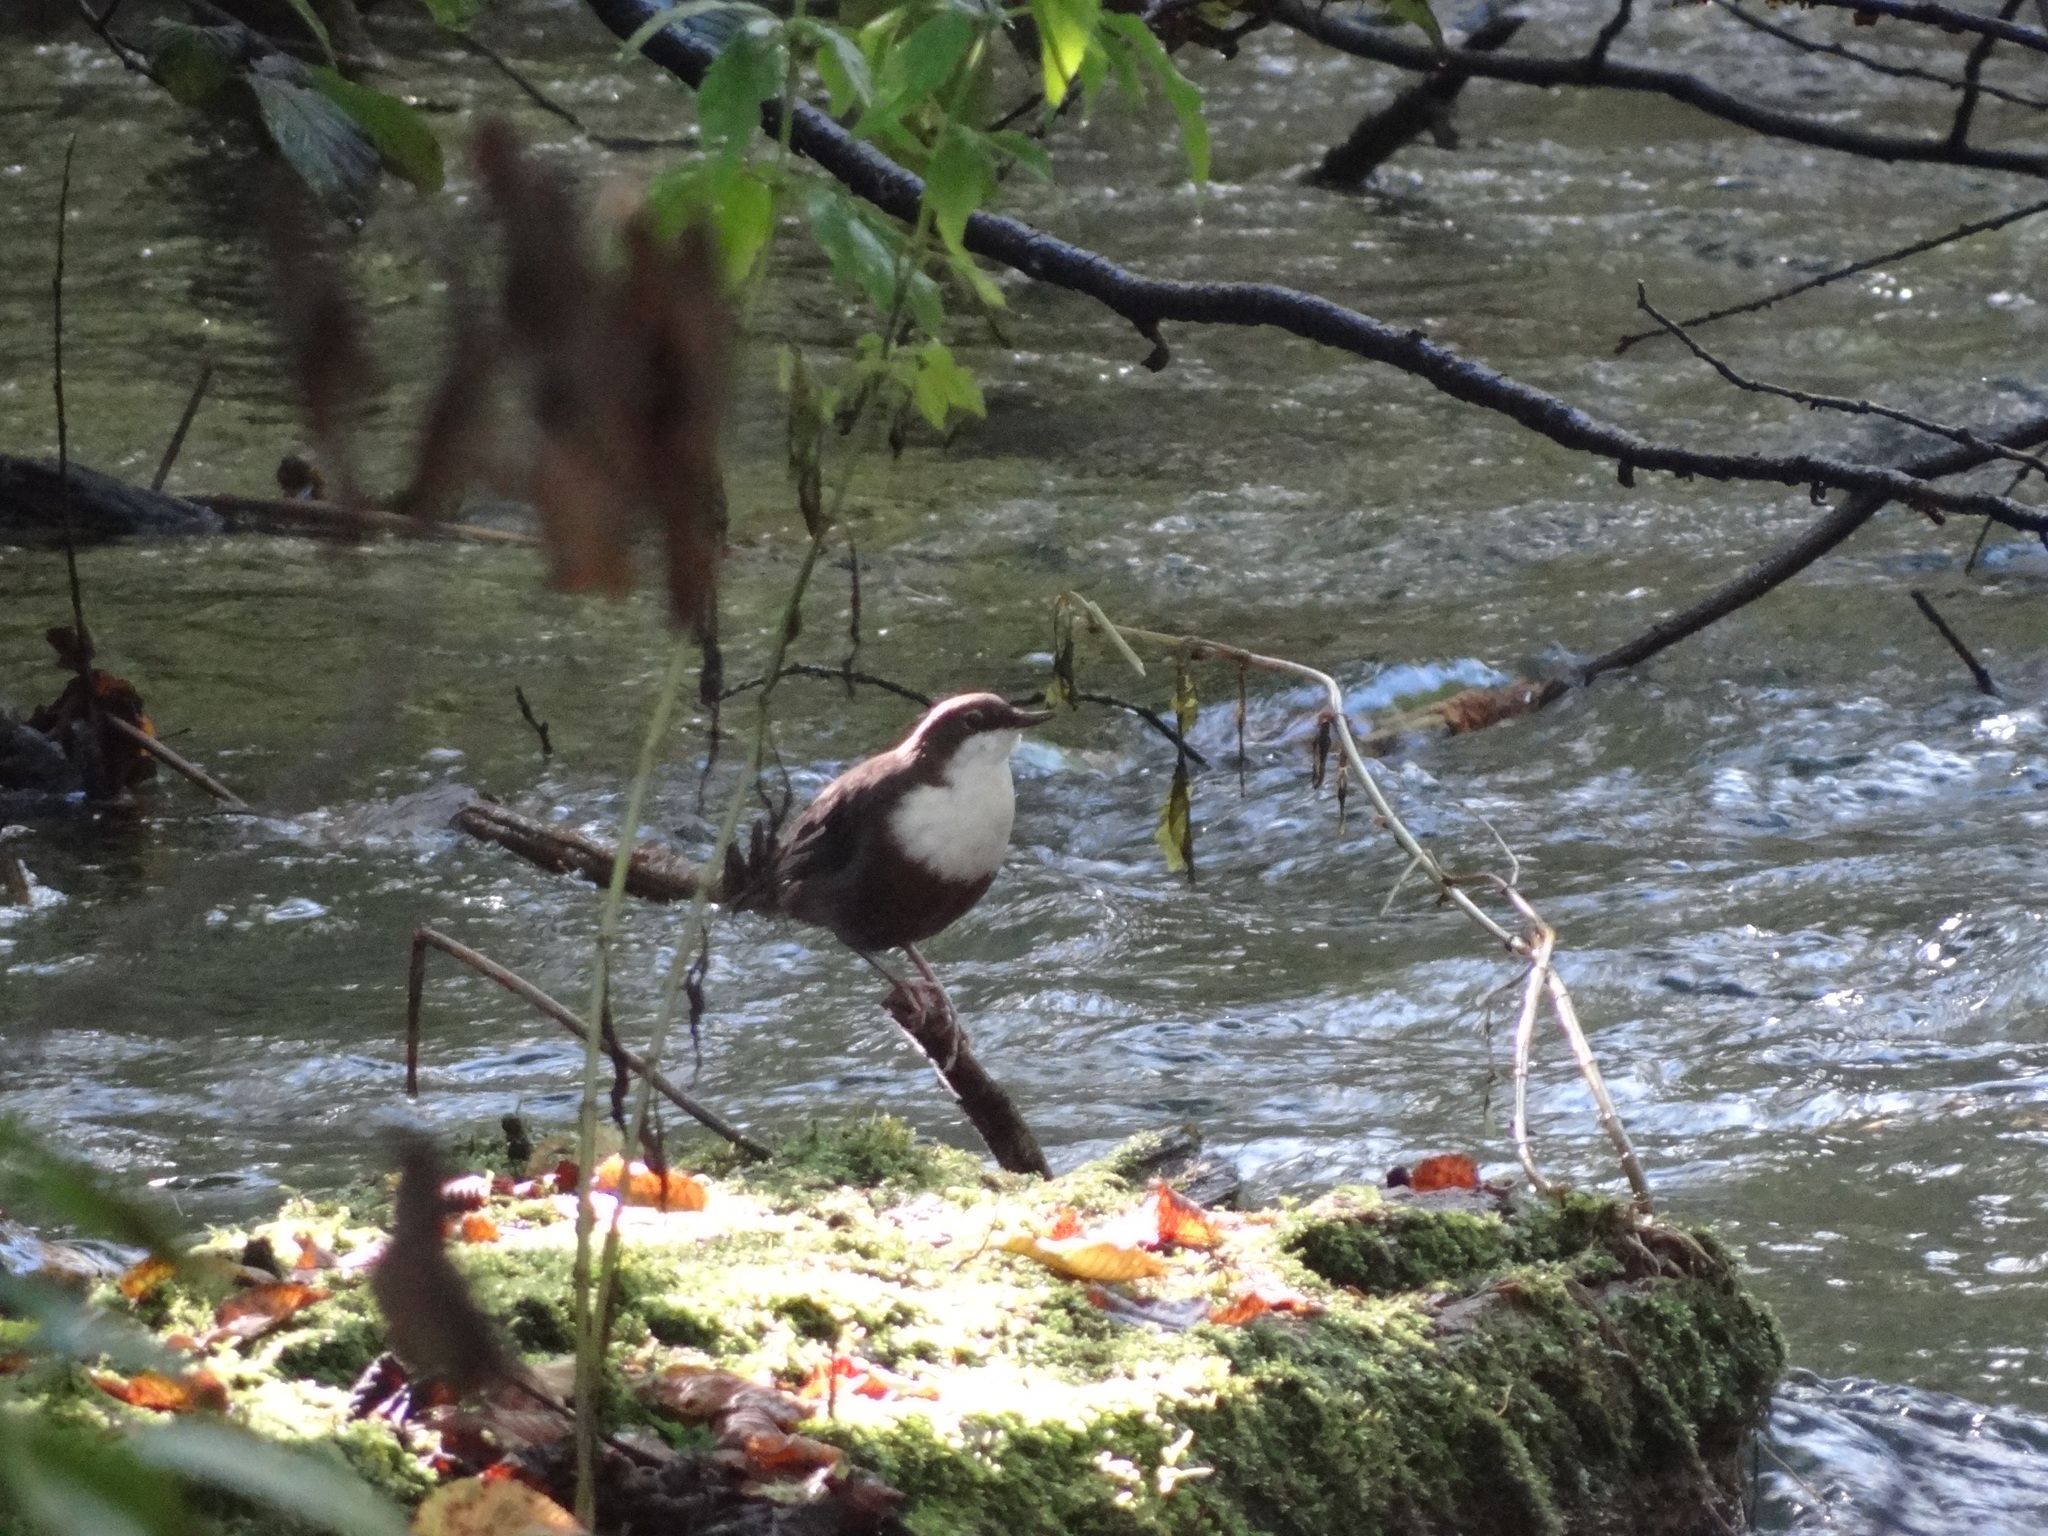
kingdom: Animalia
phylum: Chordata
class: Aves
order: Passeriformes
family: Cinclidae
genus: Cinclus
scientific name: Cinclus cinclus
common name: White-throated dipper
